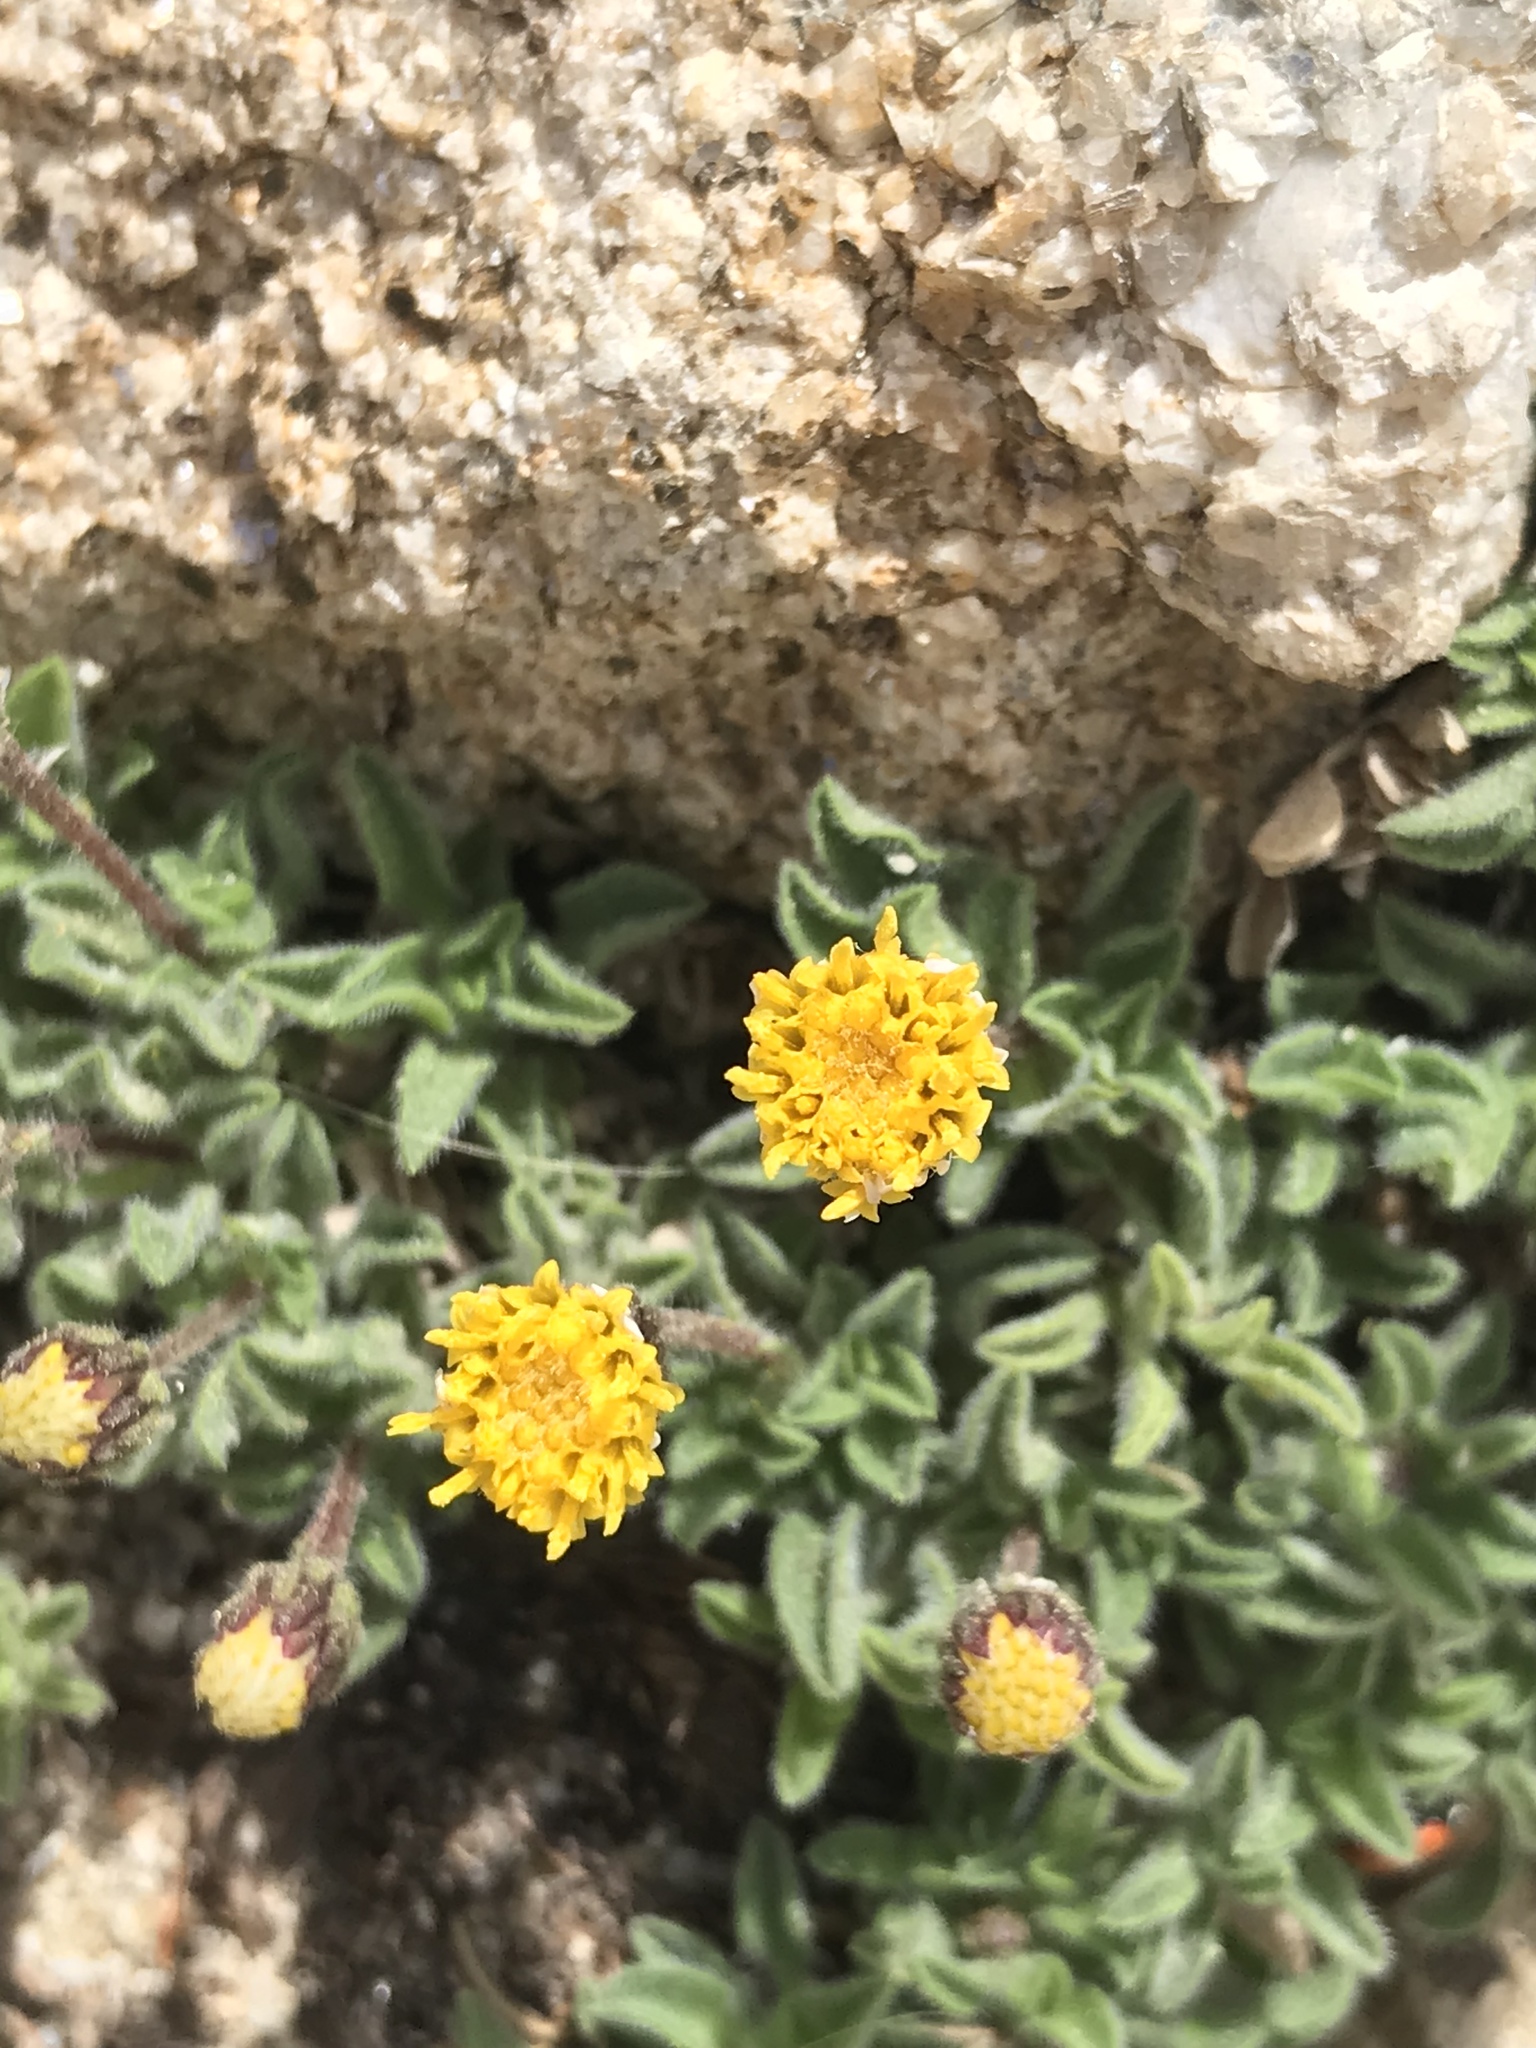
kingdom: Plantae
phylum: Tracheophyta
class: Magnoliopsida
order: Asterales
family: Asteraceae
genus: Heterotheca
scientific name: Heterotheca brandegeei
